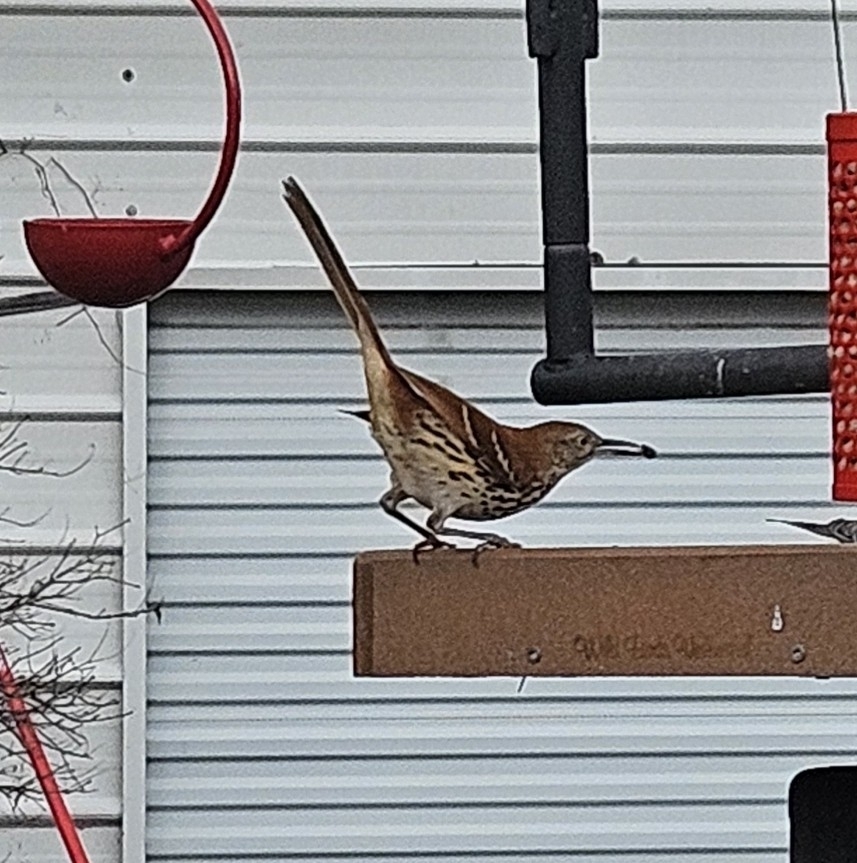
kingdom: Animalia
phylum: Chordata
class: Aves
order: Passeriformes
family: Mimidae
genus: Toxostoma
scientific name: Toxostoma rufum
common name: Brown thrasher
